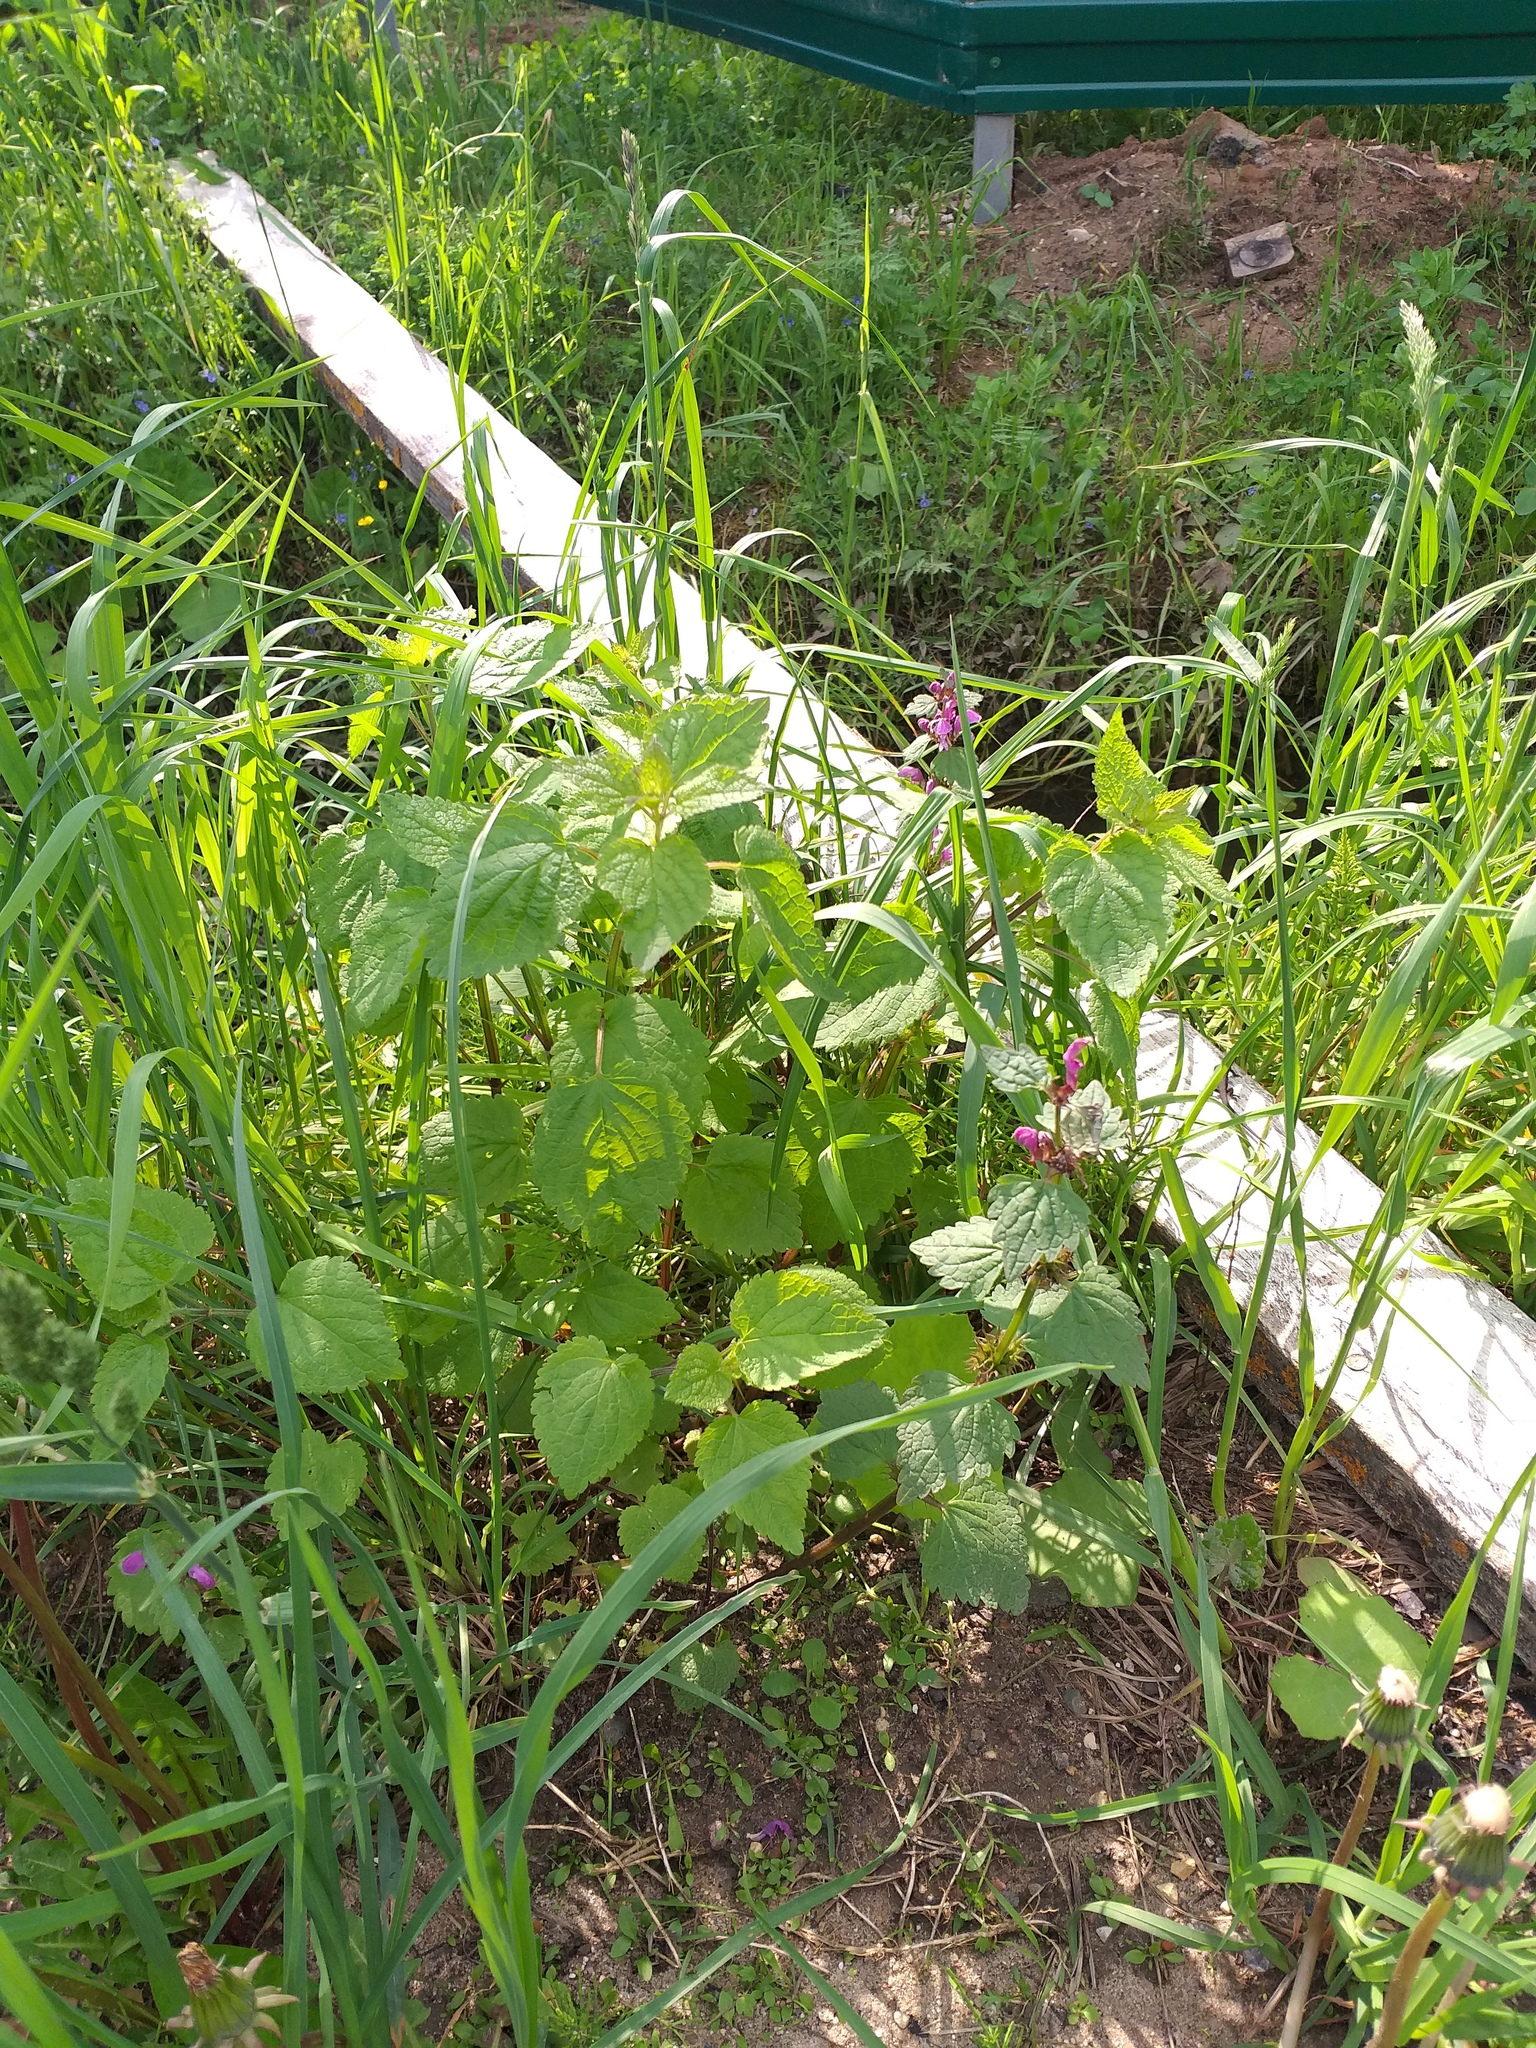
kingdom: Plantae
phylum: Tracheophyta
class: Magnoliopsida
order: Lamiales
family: Lamiaceae
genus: Lamium
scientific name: Lamium maculatum
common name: Spotted dead-nettle
